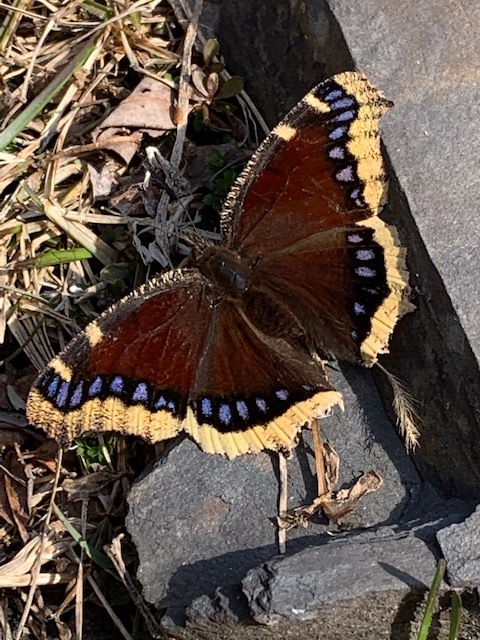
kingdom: Animalia
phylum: Arthropoda
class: Insecta
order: Lepidoptera
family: Nymphalidae
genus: Nymphalis
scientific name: Nymphalis antiopa
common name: Camberwell beauty
